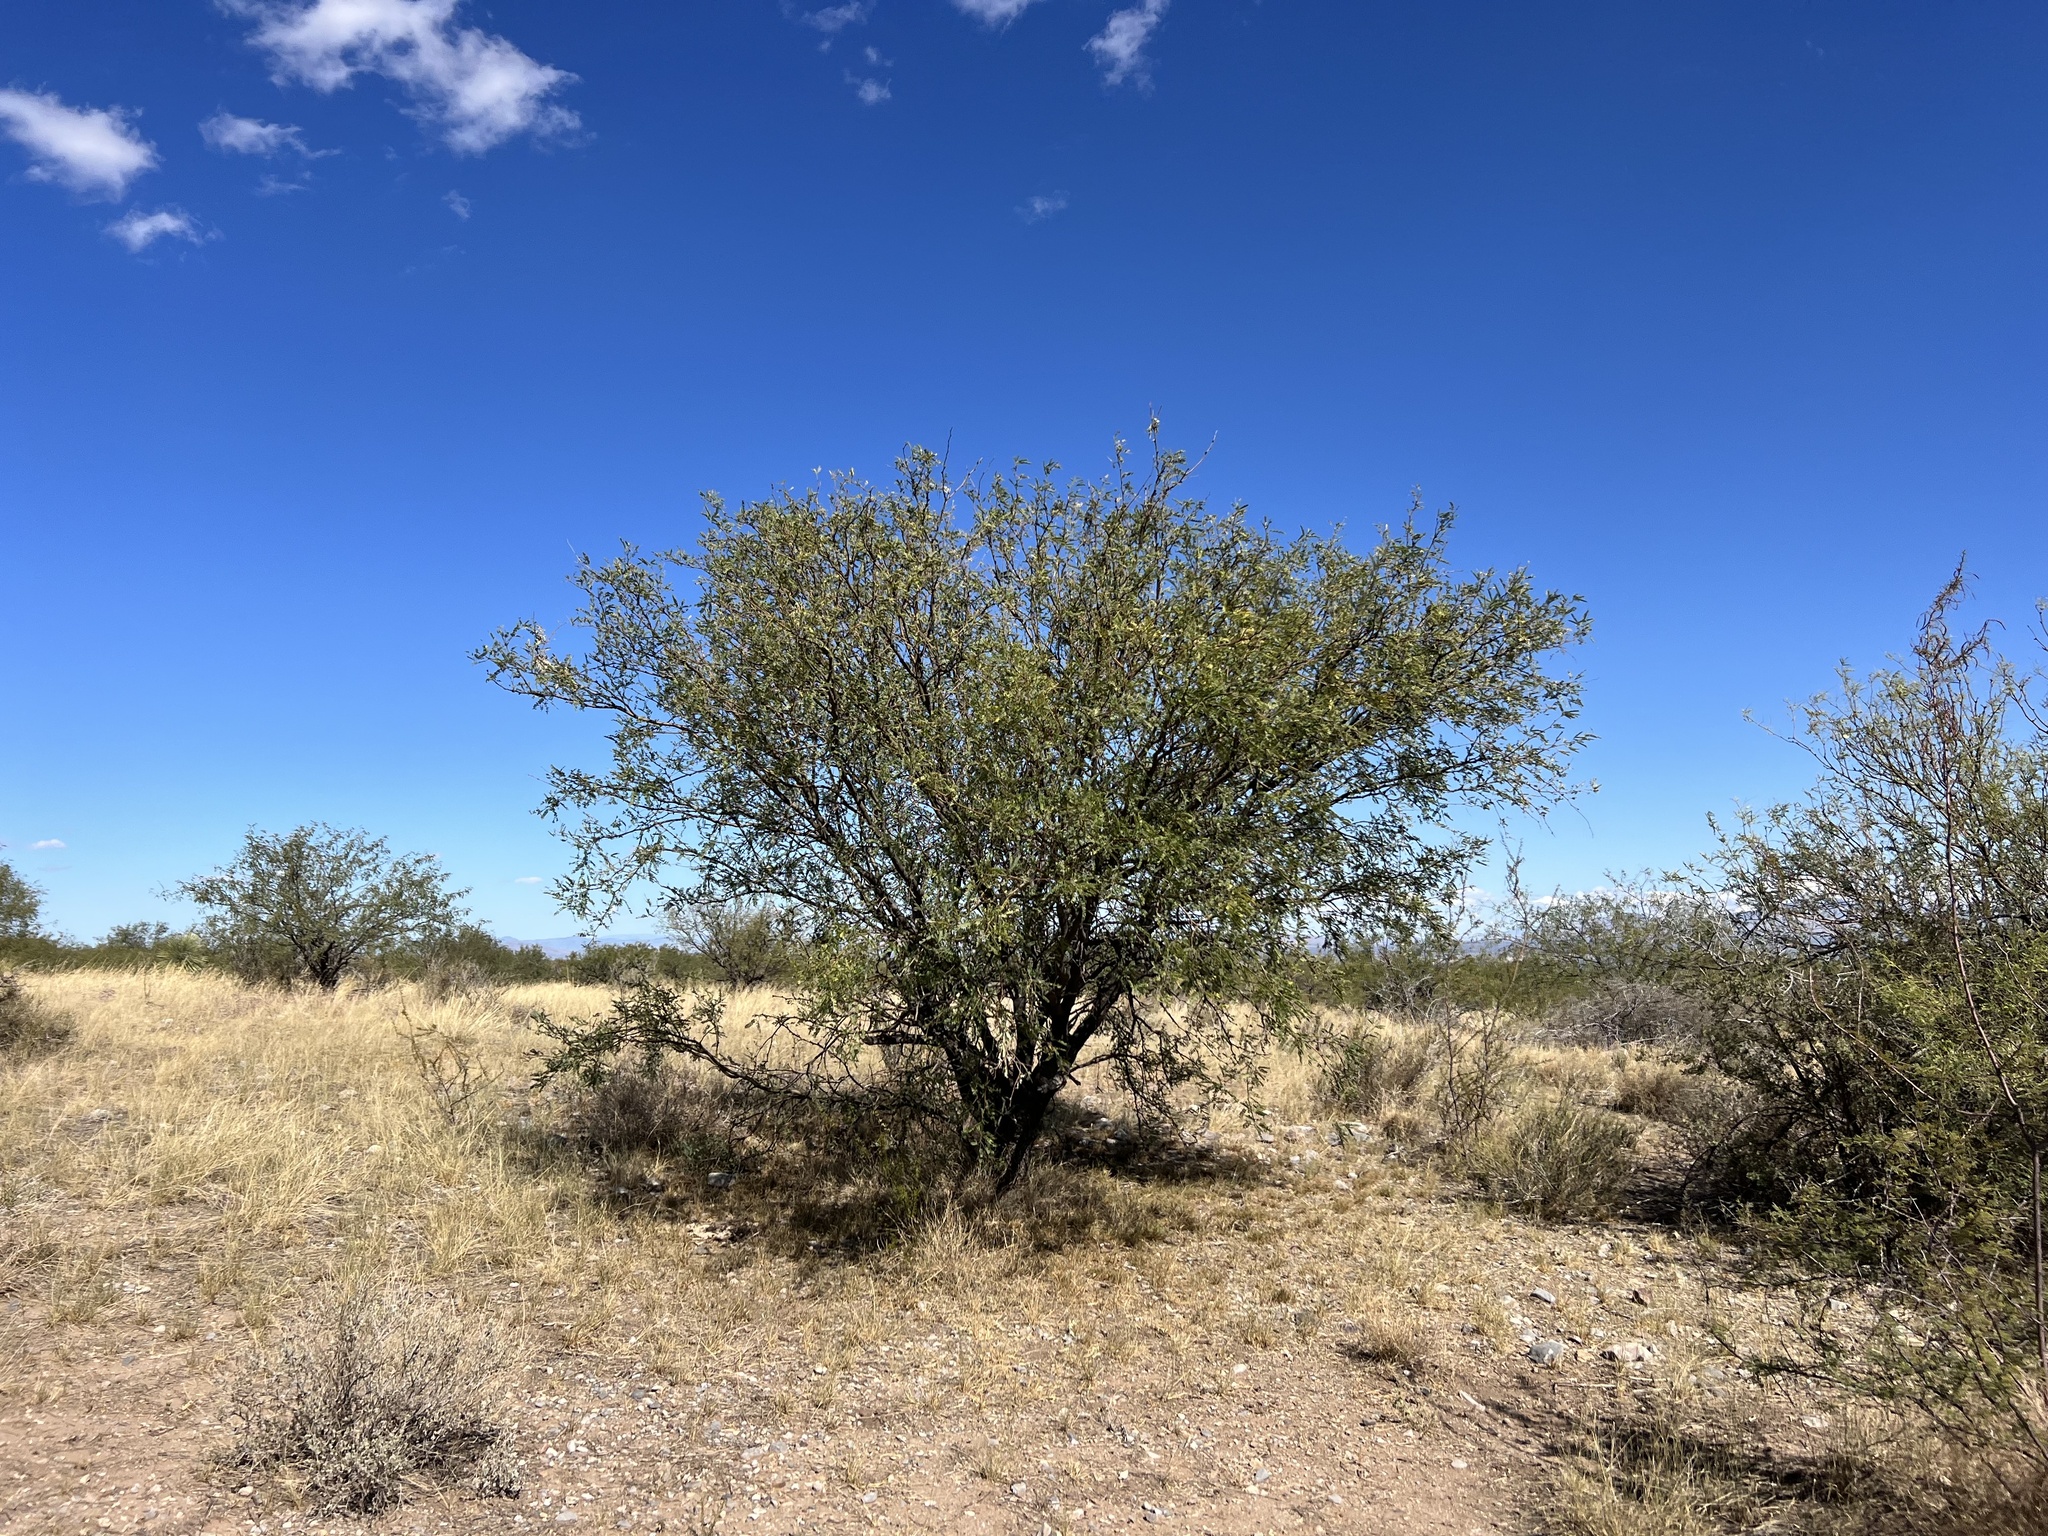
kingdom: Plantae
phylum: Tracheophyta
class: Magnoliopsida
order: Fabales
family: Fabaceae
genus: Prosopis
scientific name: Prosopis velutina
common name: Velvet mesquite
